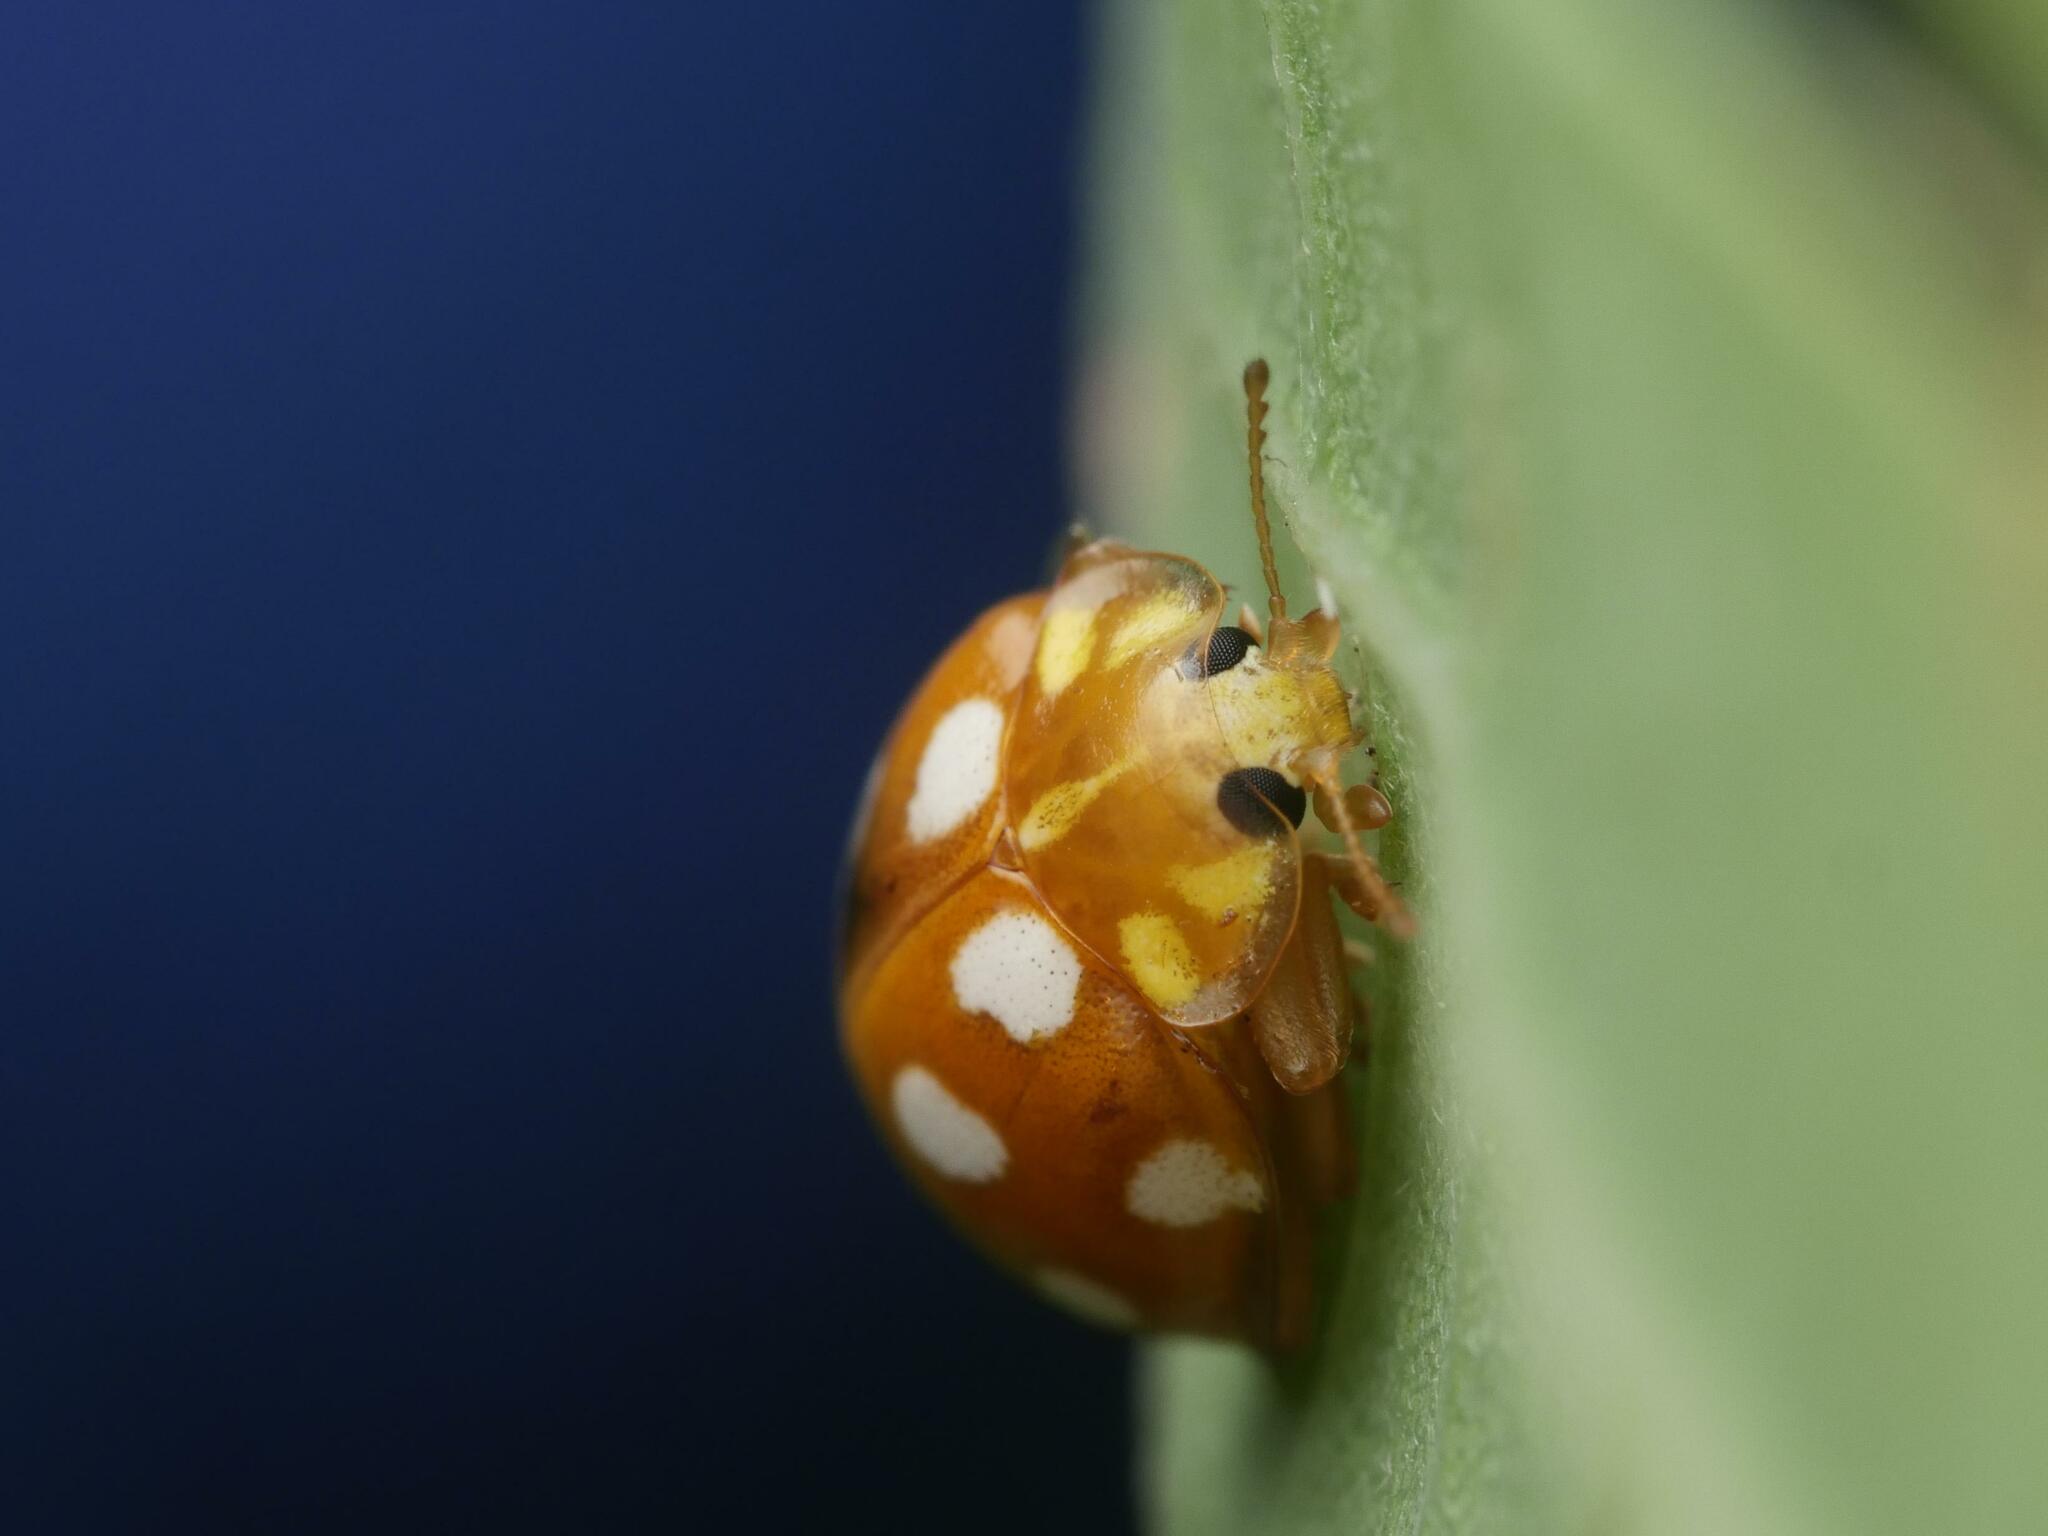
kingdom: Animalia
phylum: Arthropoda
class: Insecta
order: Coleoptera
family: Coccinellidae
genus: Halyzia
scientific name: Halyzia sedecimguttata
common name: Orange ladybird
